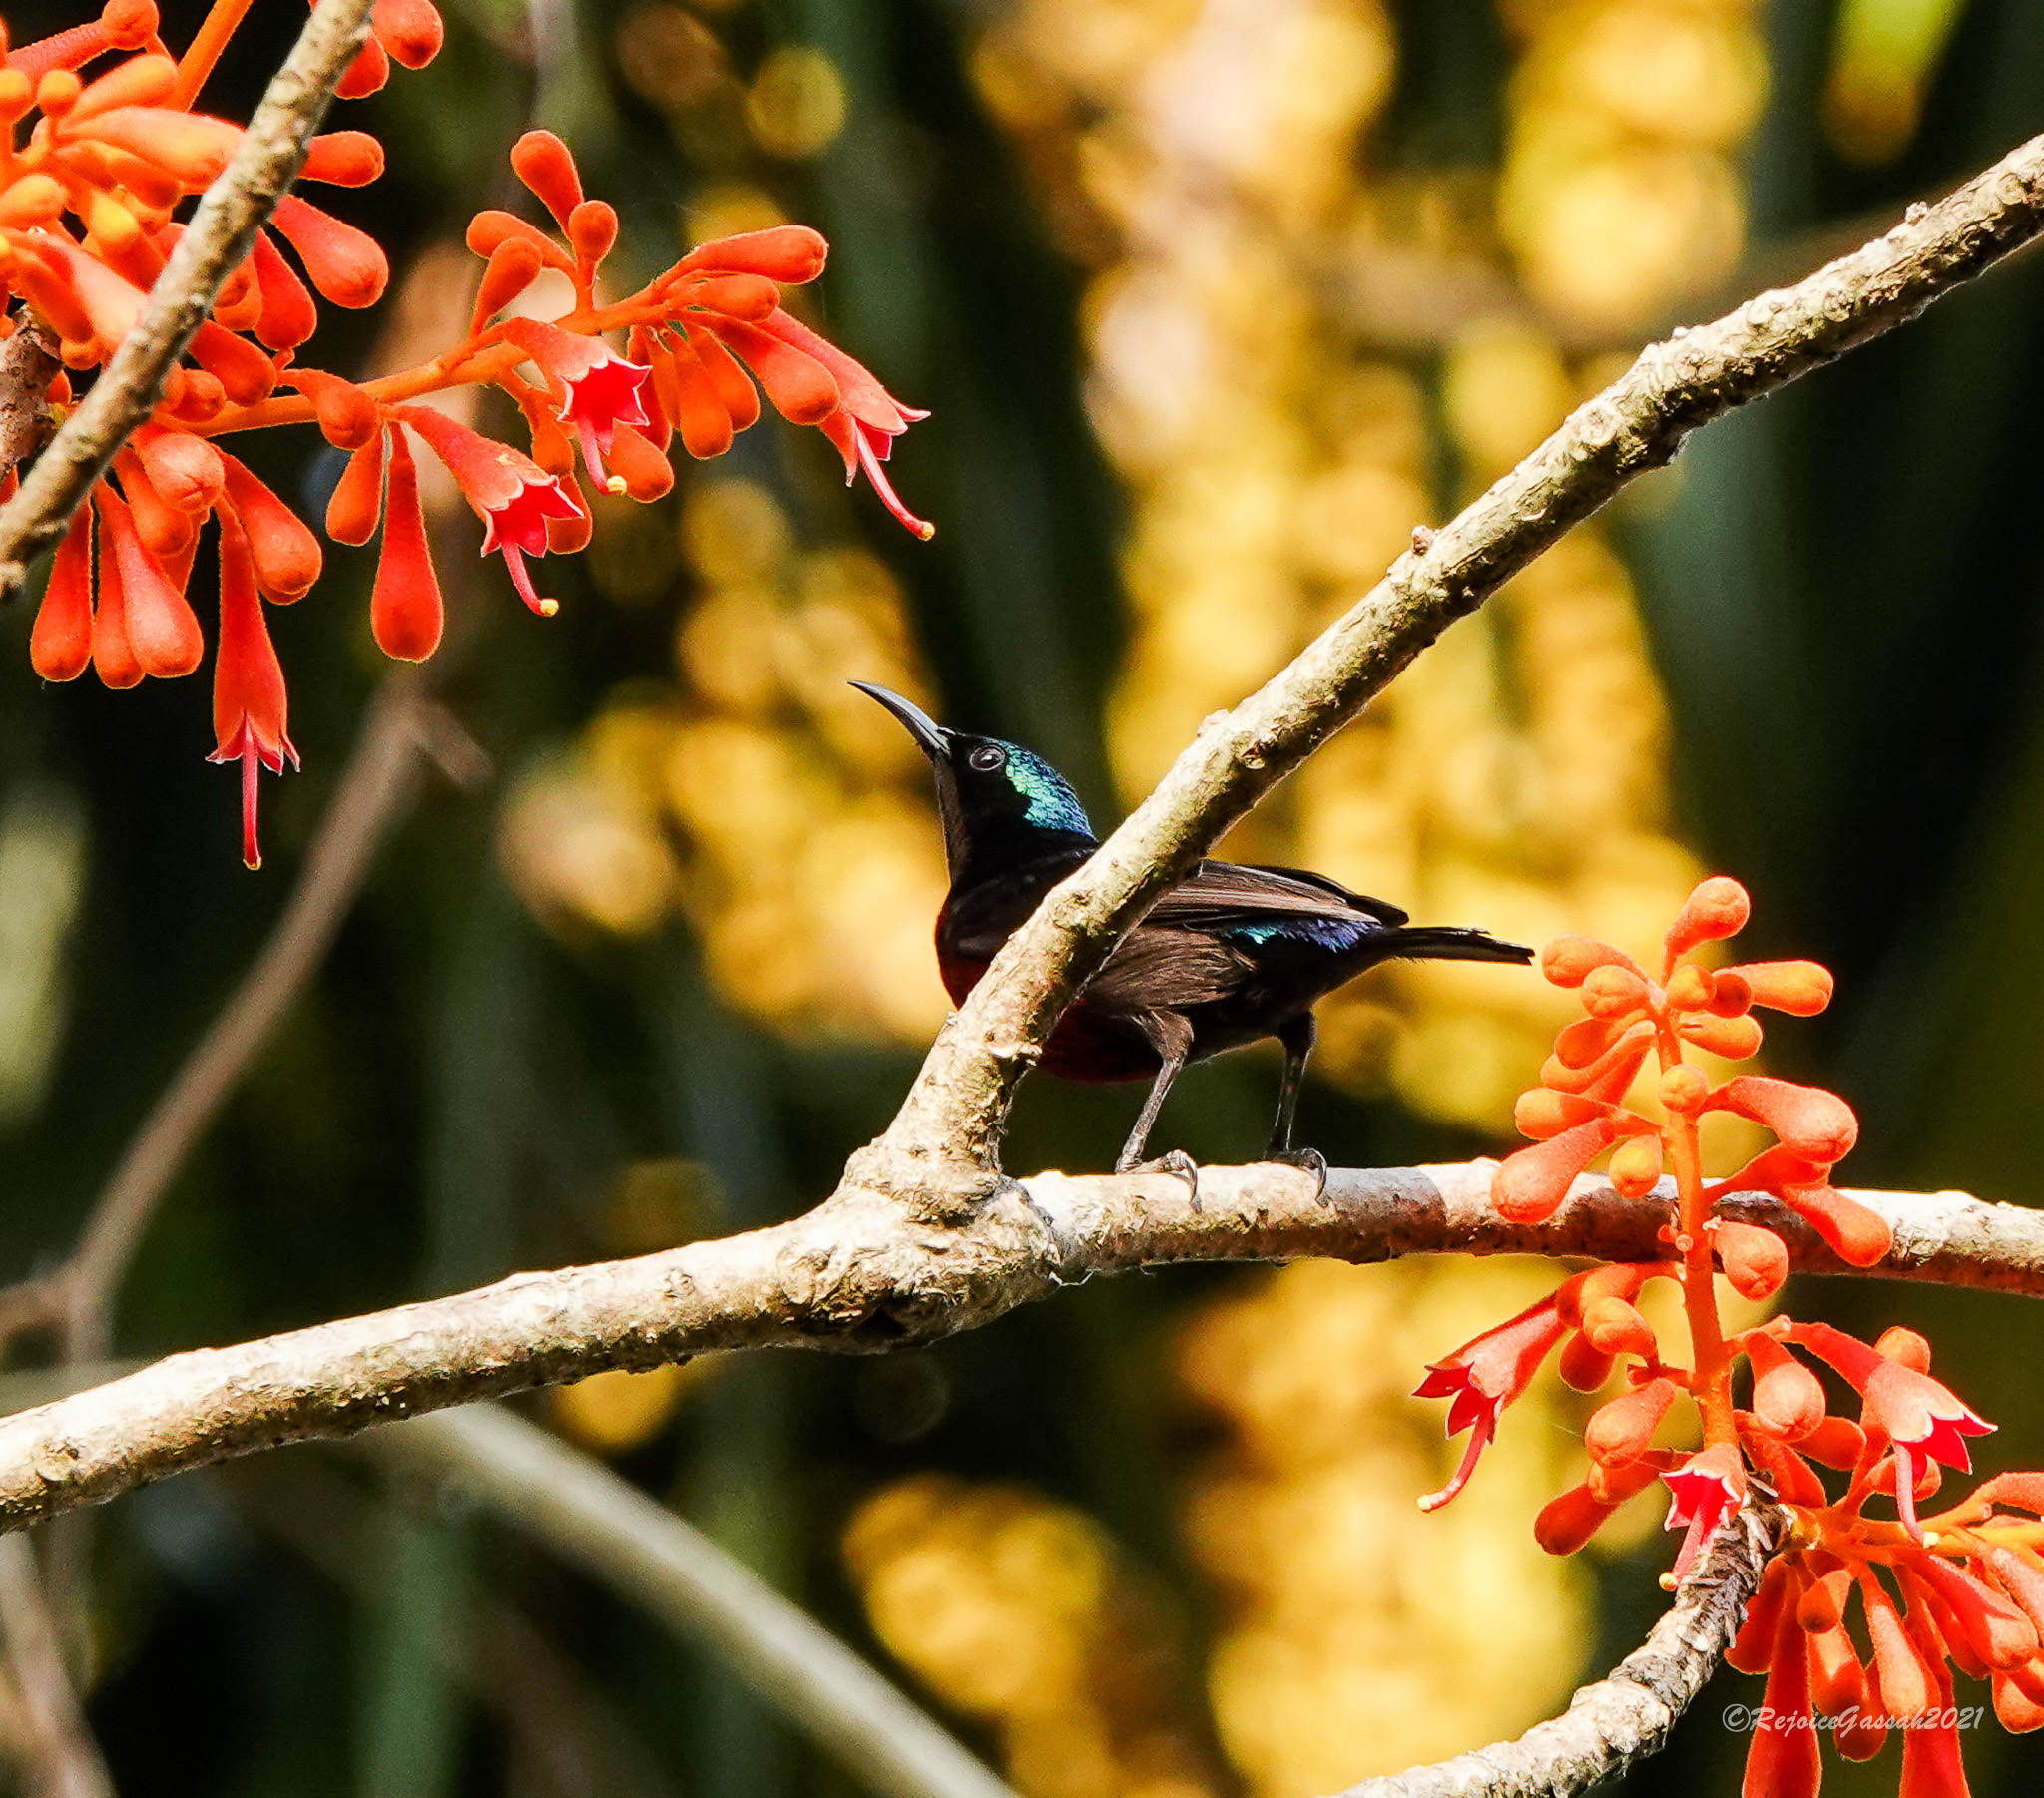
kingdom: Animalia
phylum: Chordata
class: Aves
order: Passeriformes
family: Nectariniidae
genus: Leptocoma
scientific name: Leptocoma brasiliana
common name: Van hasselt's sunbird
